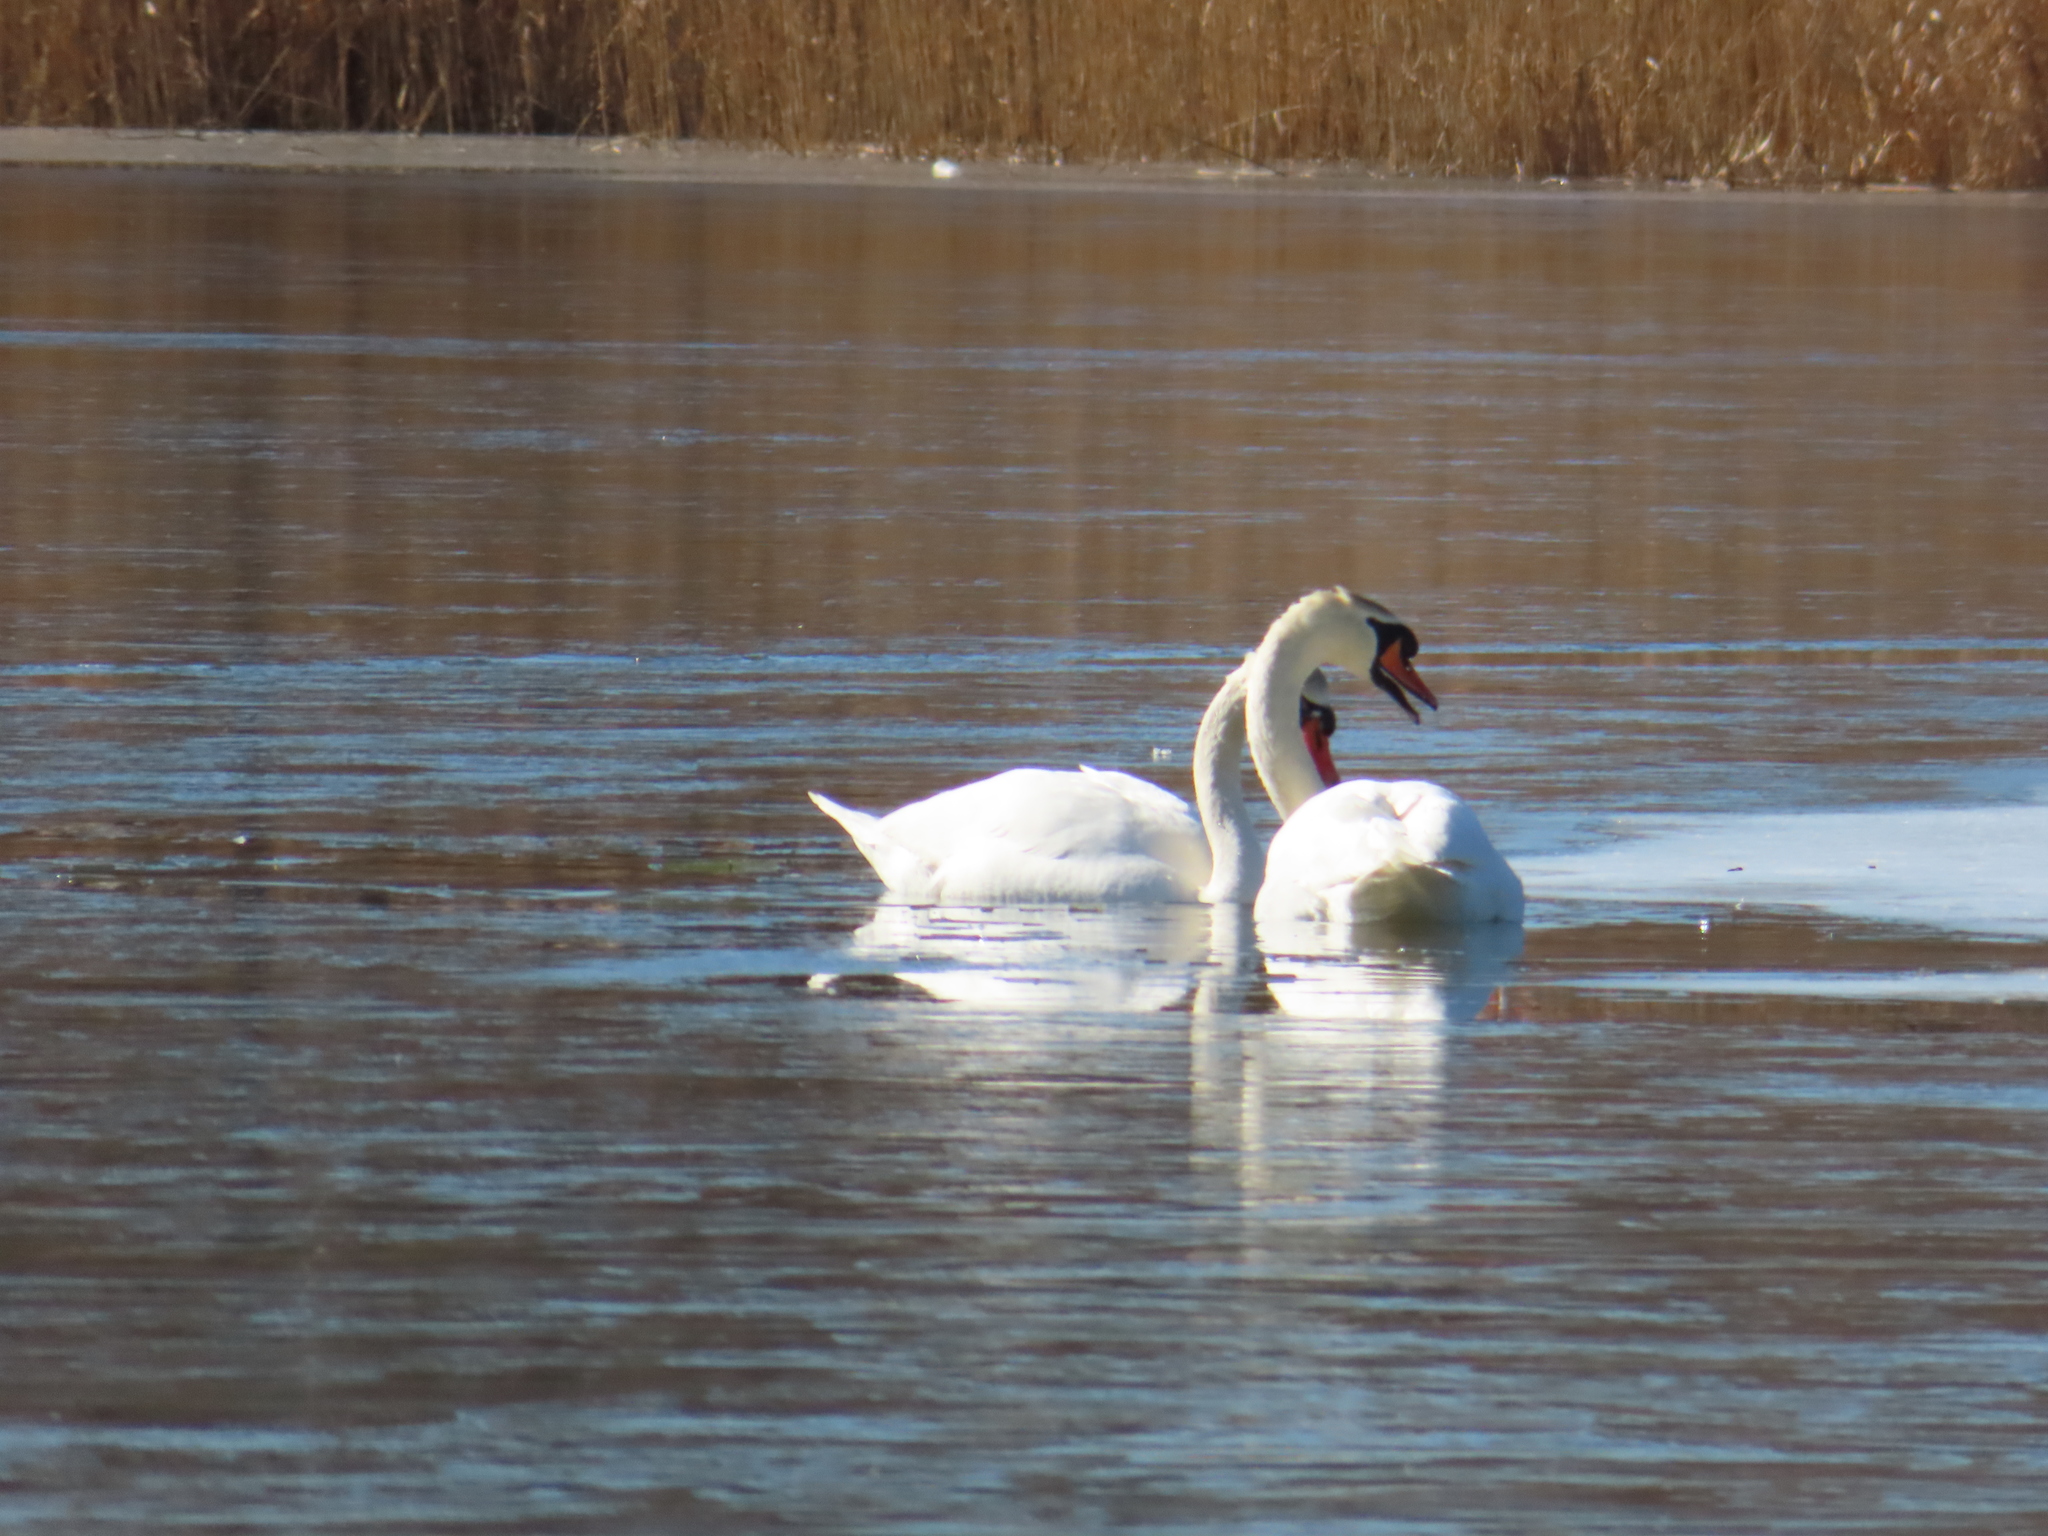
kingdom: Animalia
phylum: Chordata
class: Aves
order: Anseriformes
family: Anatidae
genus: Cygnus
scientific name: Cygnus olor
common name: Mute swan
